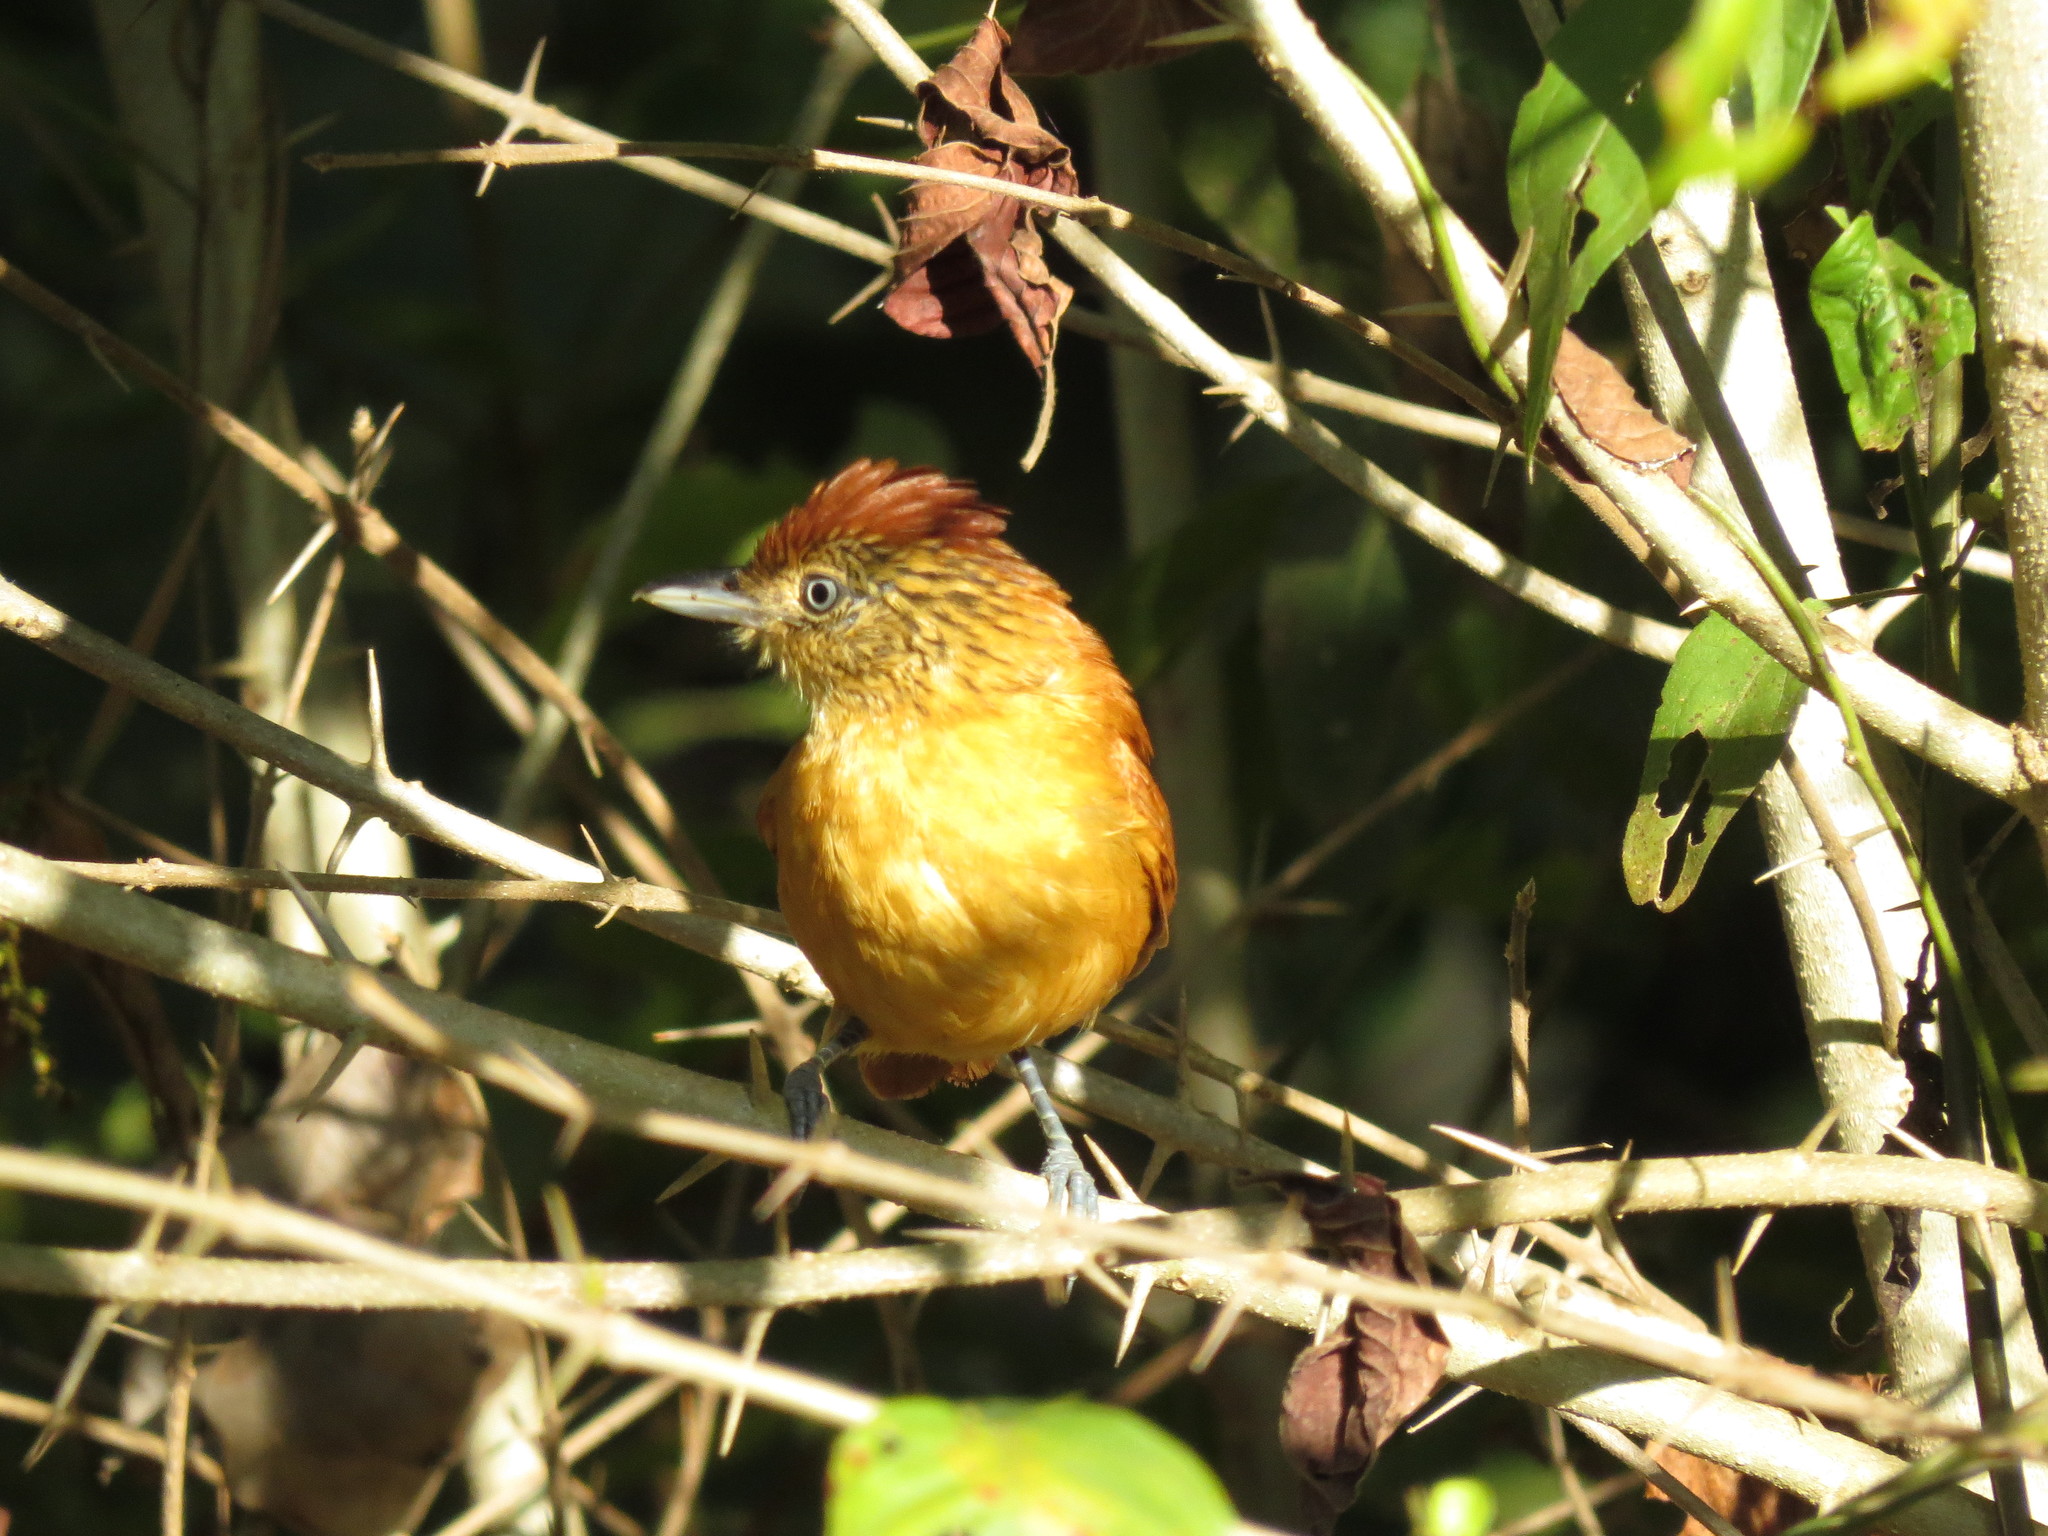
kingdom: Animalia
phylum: Chordata
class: Aves
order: Passeriformes
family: Thamnophilidae
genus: Thamnophilus
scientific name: Thamnophilus doliatus
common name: Barred antshrike
